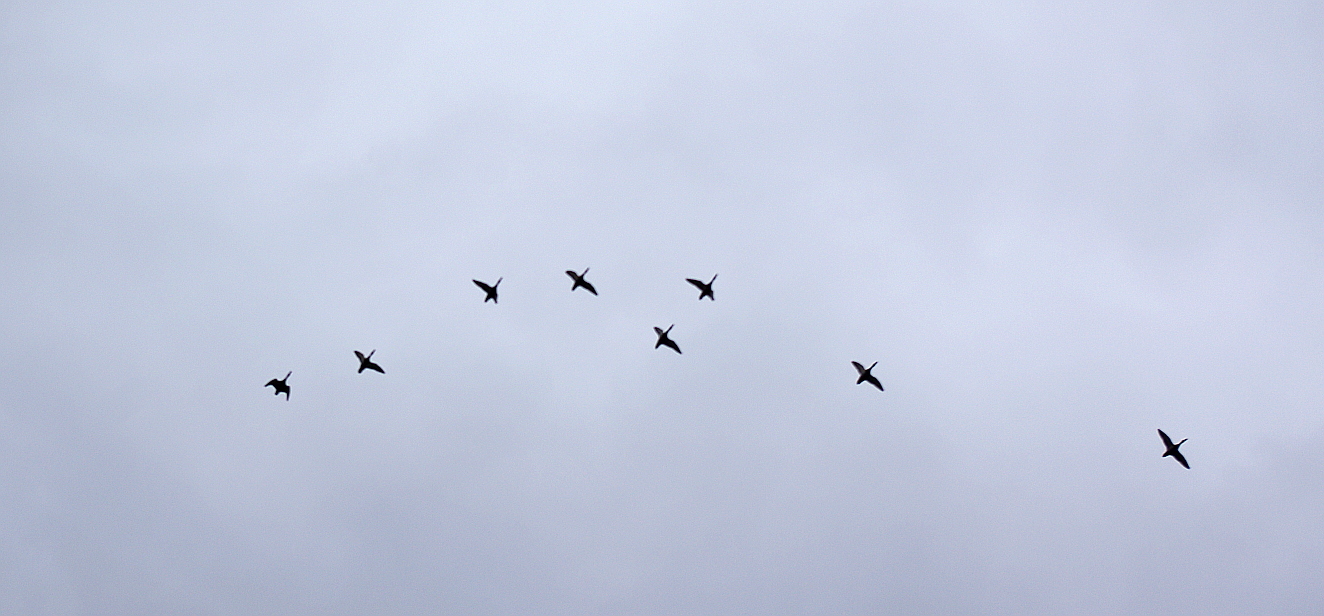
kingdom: Animalia
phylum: Chordata
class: Aves
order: Anseriformes
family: Anatidae
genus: Anas
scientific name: Anas platyrhynchos
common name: Mallard
